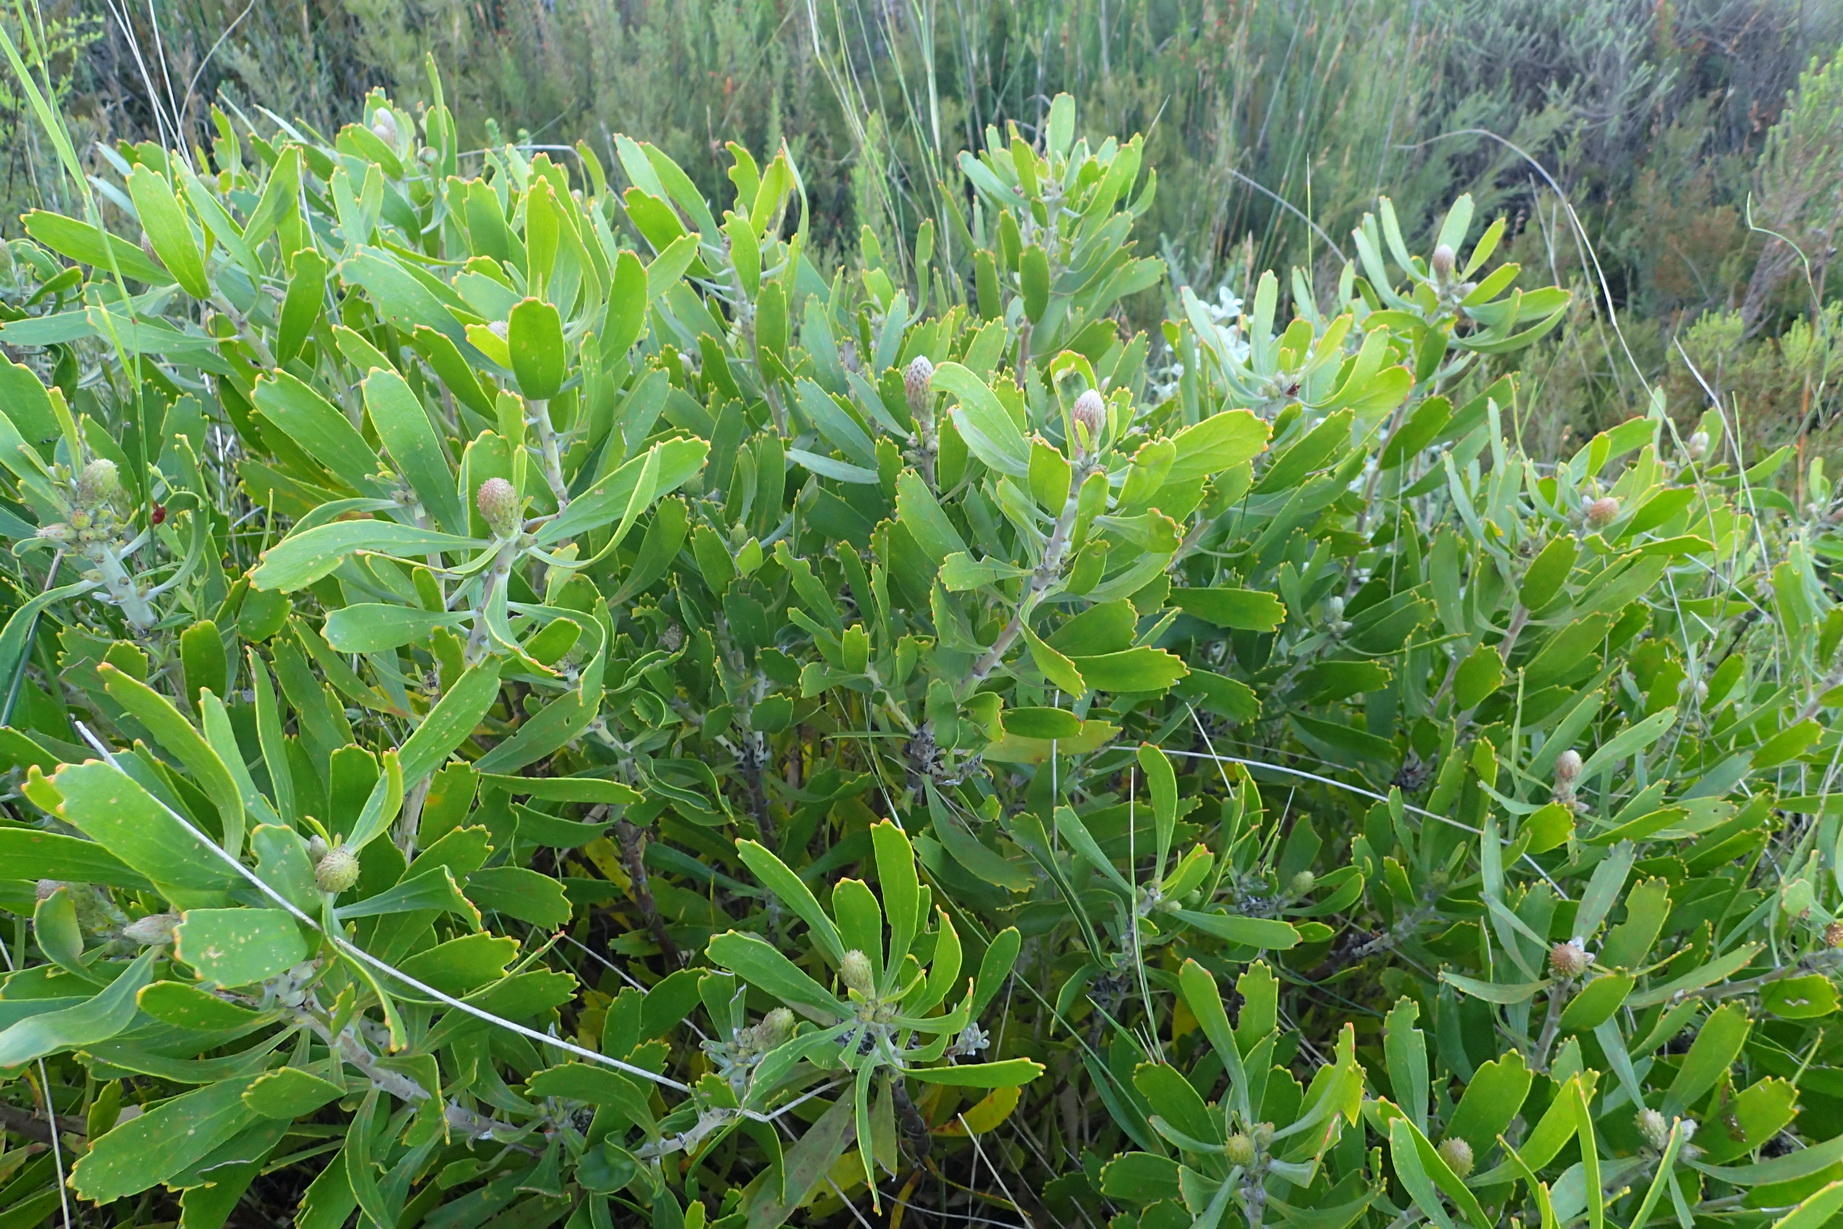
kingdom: Plantae
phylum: Tracheophyta
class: Magnoliopsida
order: Proteales
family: Proteaceae
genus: Leucospermum
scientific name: Leucospermum cuneiforme
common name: Common pincushion
